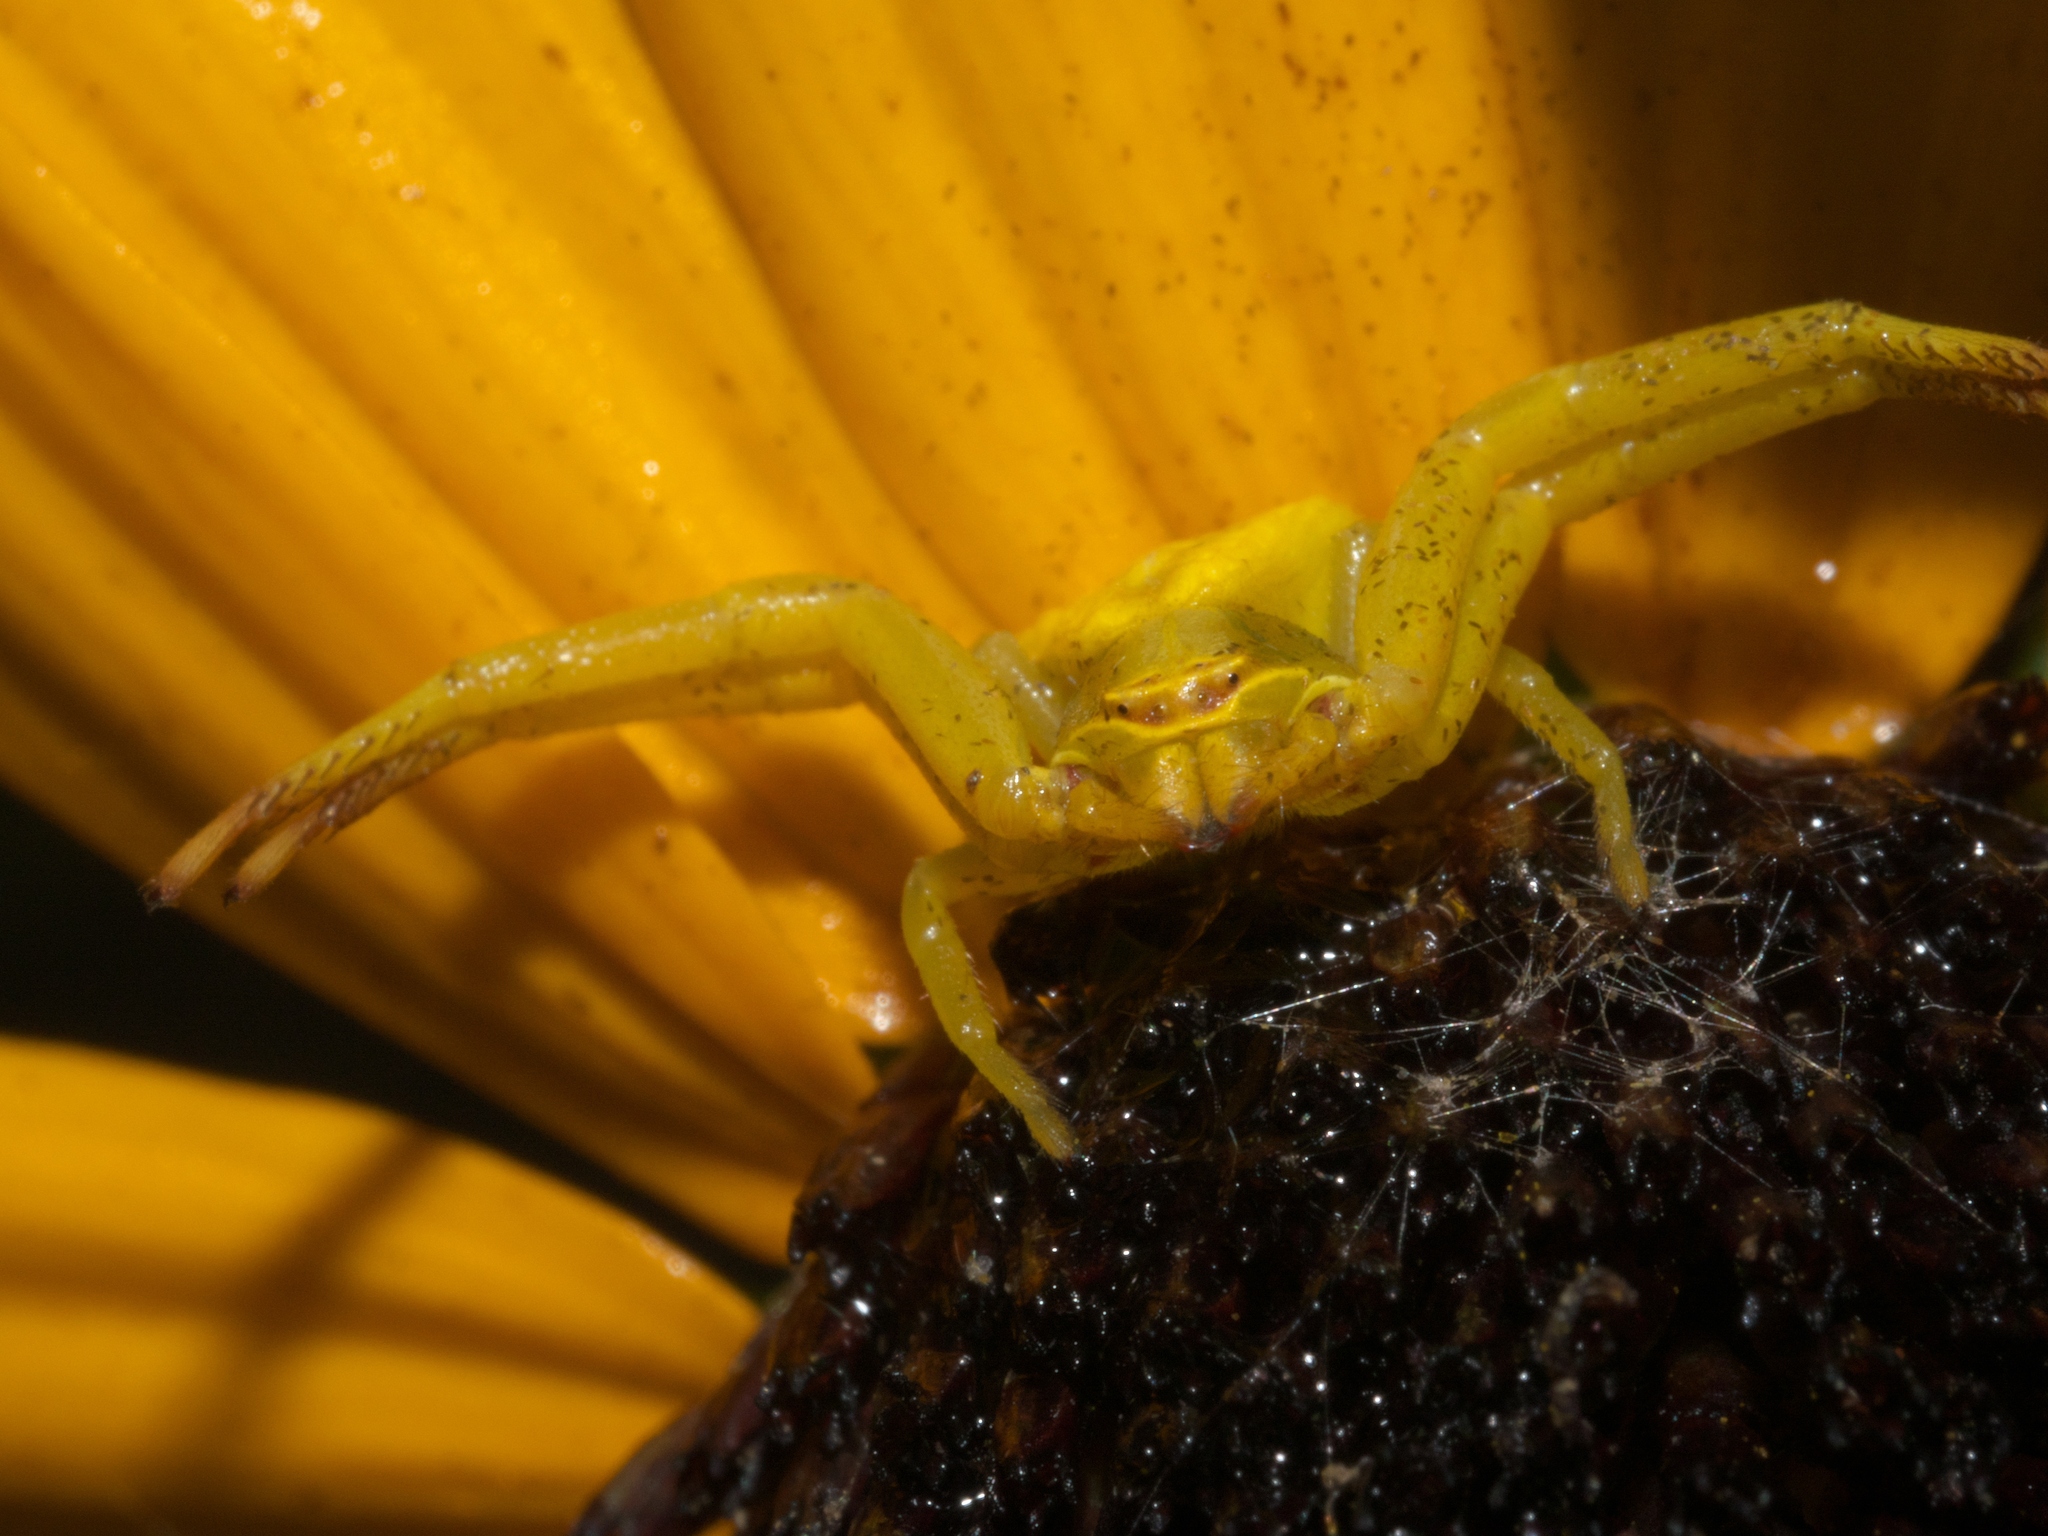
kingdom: Animalia
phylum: Arthropoda
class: Arachnida
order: Araneae
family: Thomisidae
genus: Misumenoides
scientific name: Misumenoides formosipes
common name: White-banded crab spider
